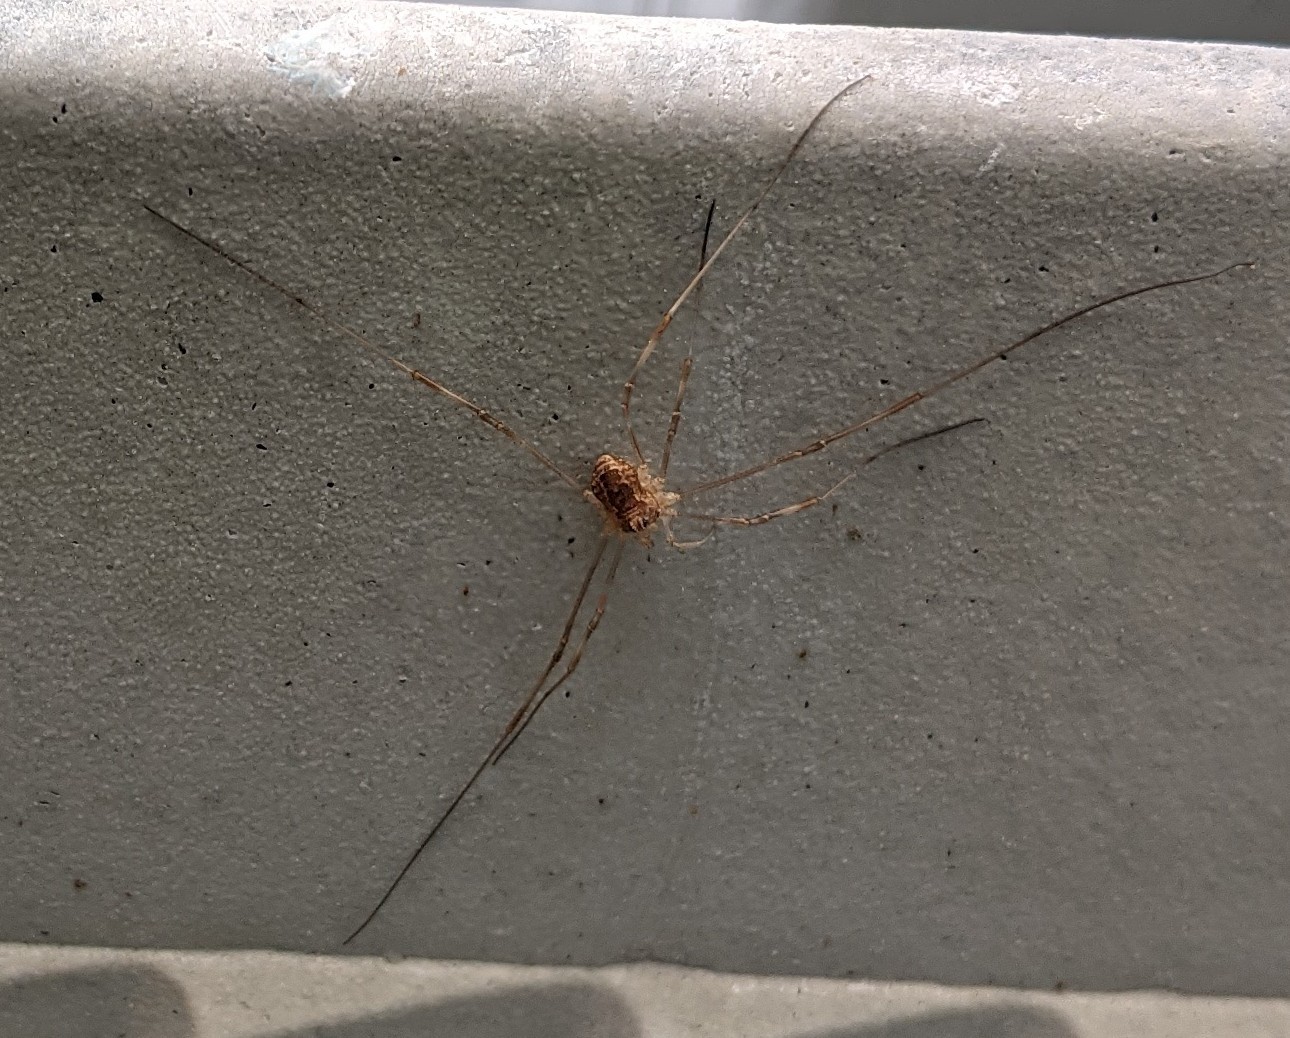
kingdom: Animalia
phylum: Arthropoda
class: Arachnida
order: Opiliones
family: Phalangiidae
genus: Rilaena
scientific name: Rilaena triangularis
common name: Spring harvestman
